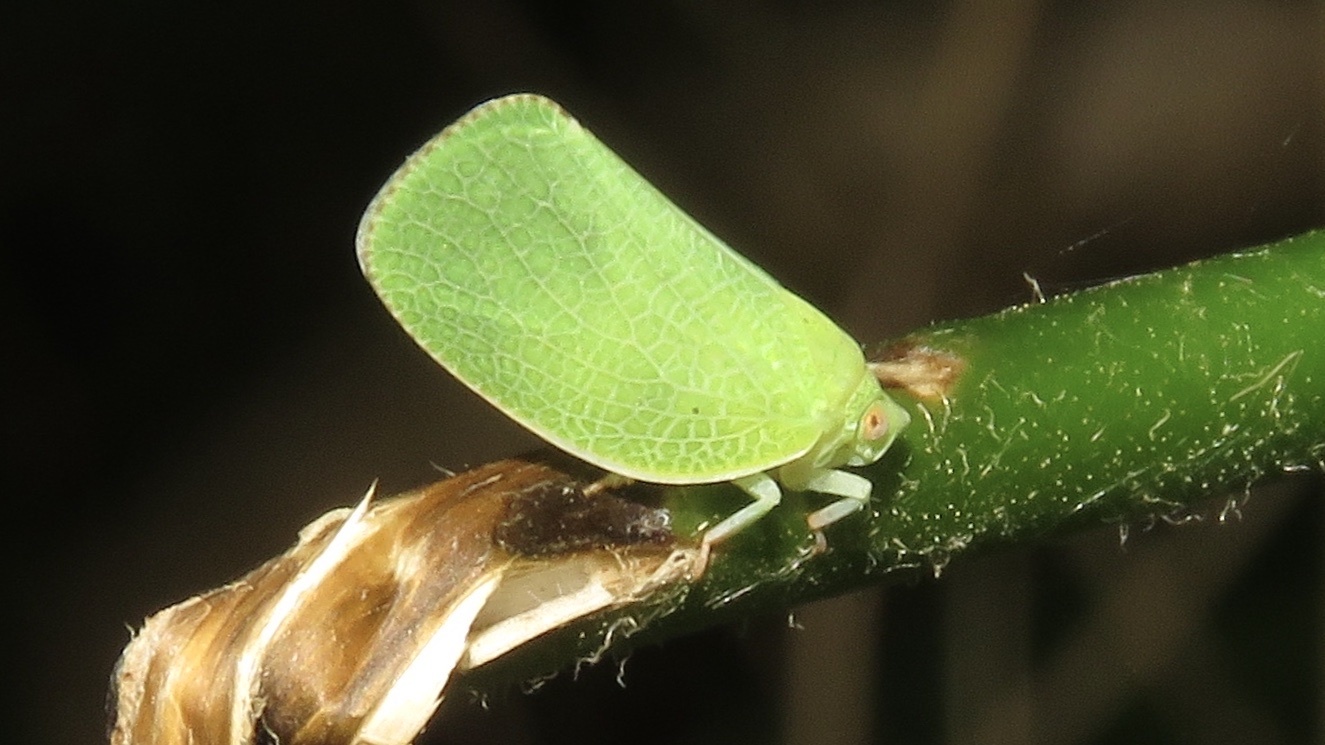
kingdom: Animalia
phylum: Arthropoda
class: Insecta
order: Hemiptera
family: Acanaloniidae
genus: Acanalonia
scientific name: Acanalonia conica
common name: Green cone-headed planthopper
